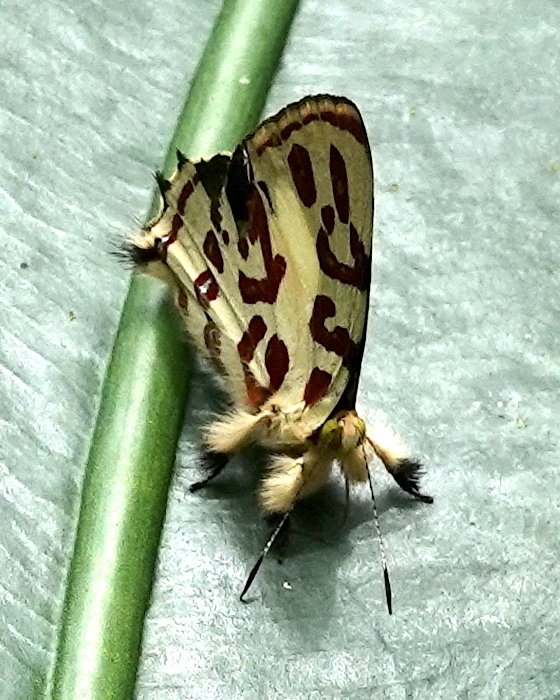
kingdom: Animalia
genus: Anteros
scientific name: Anteros kupris
